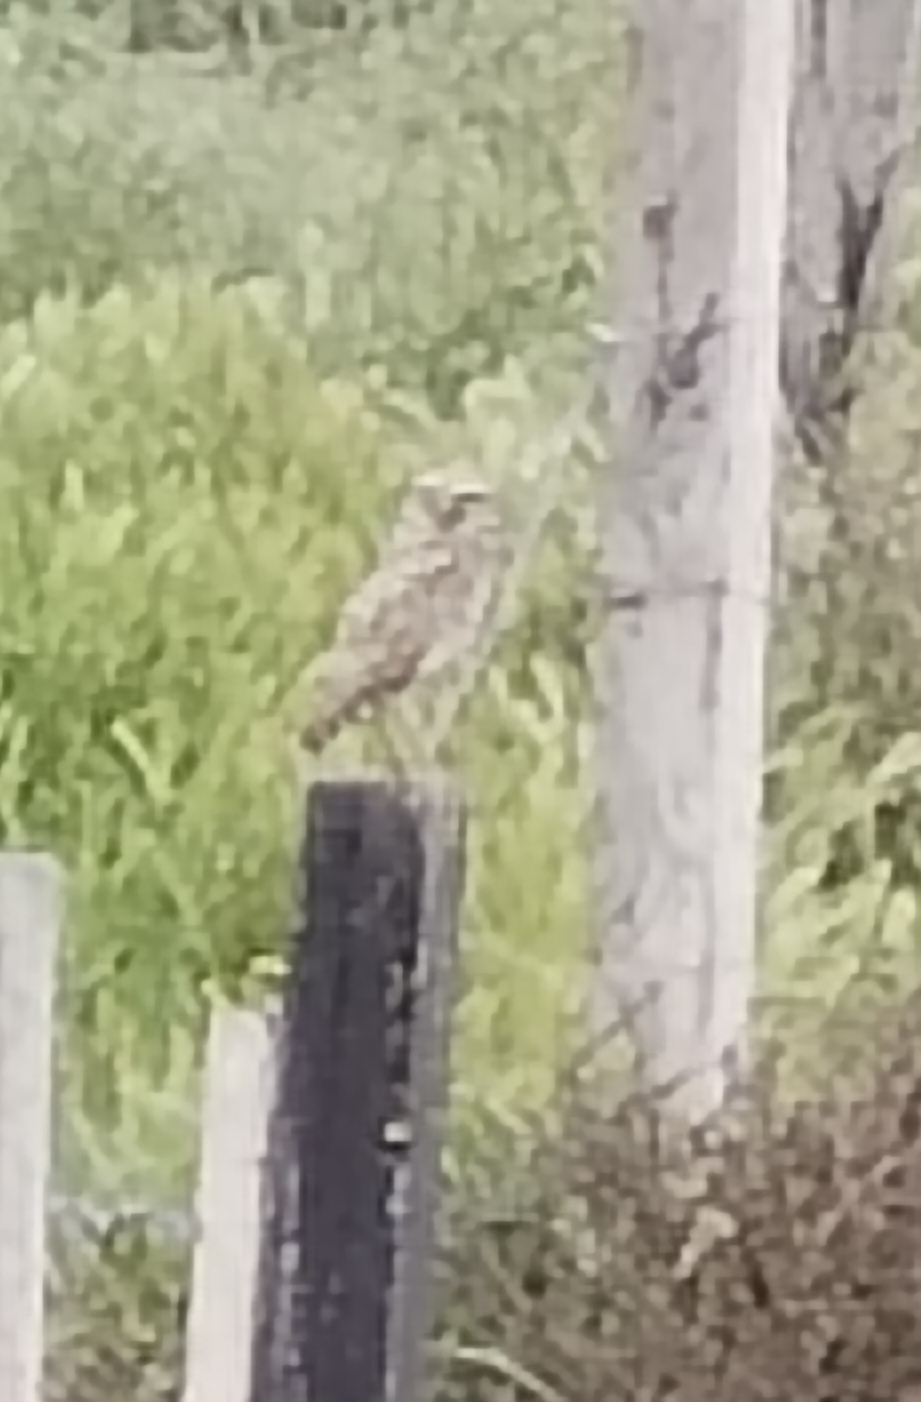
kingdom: Animalia
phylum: Chordata
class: Aves
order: Strigiformes
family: Strigidae
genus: Athene
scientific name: Athene cunicularia
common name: Burrowing owl
